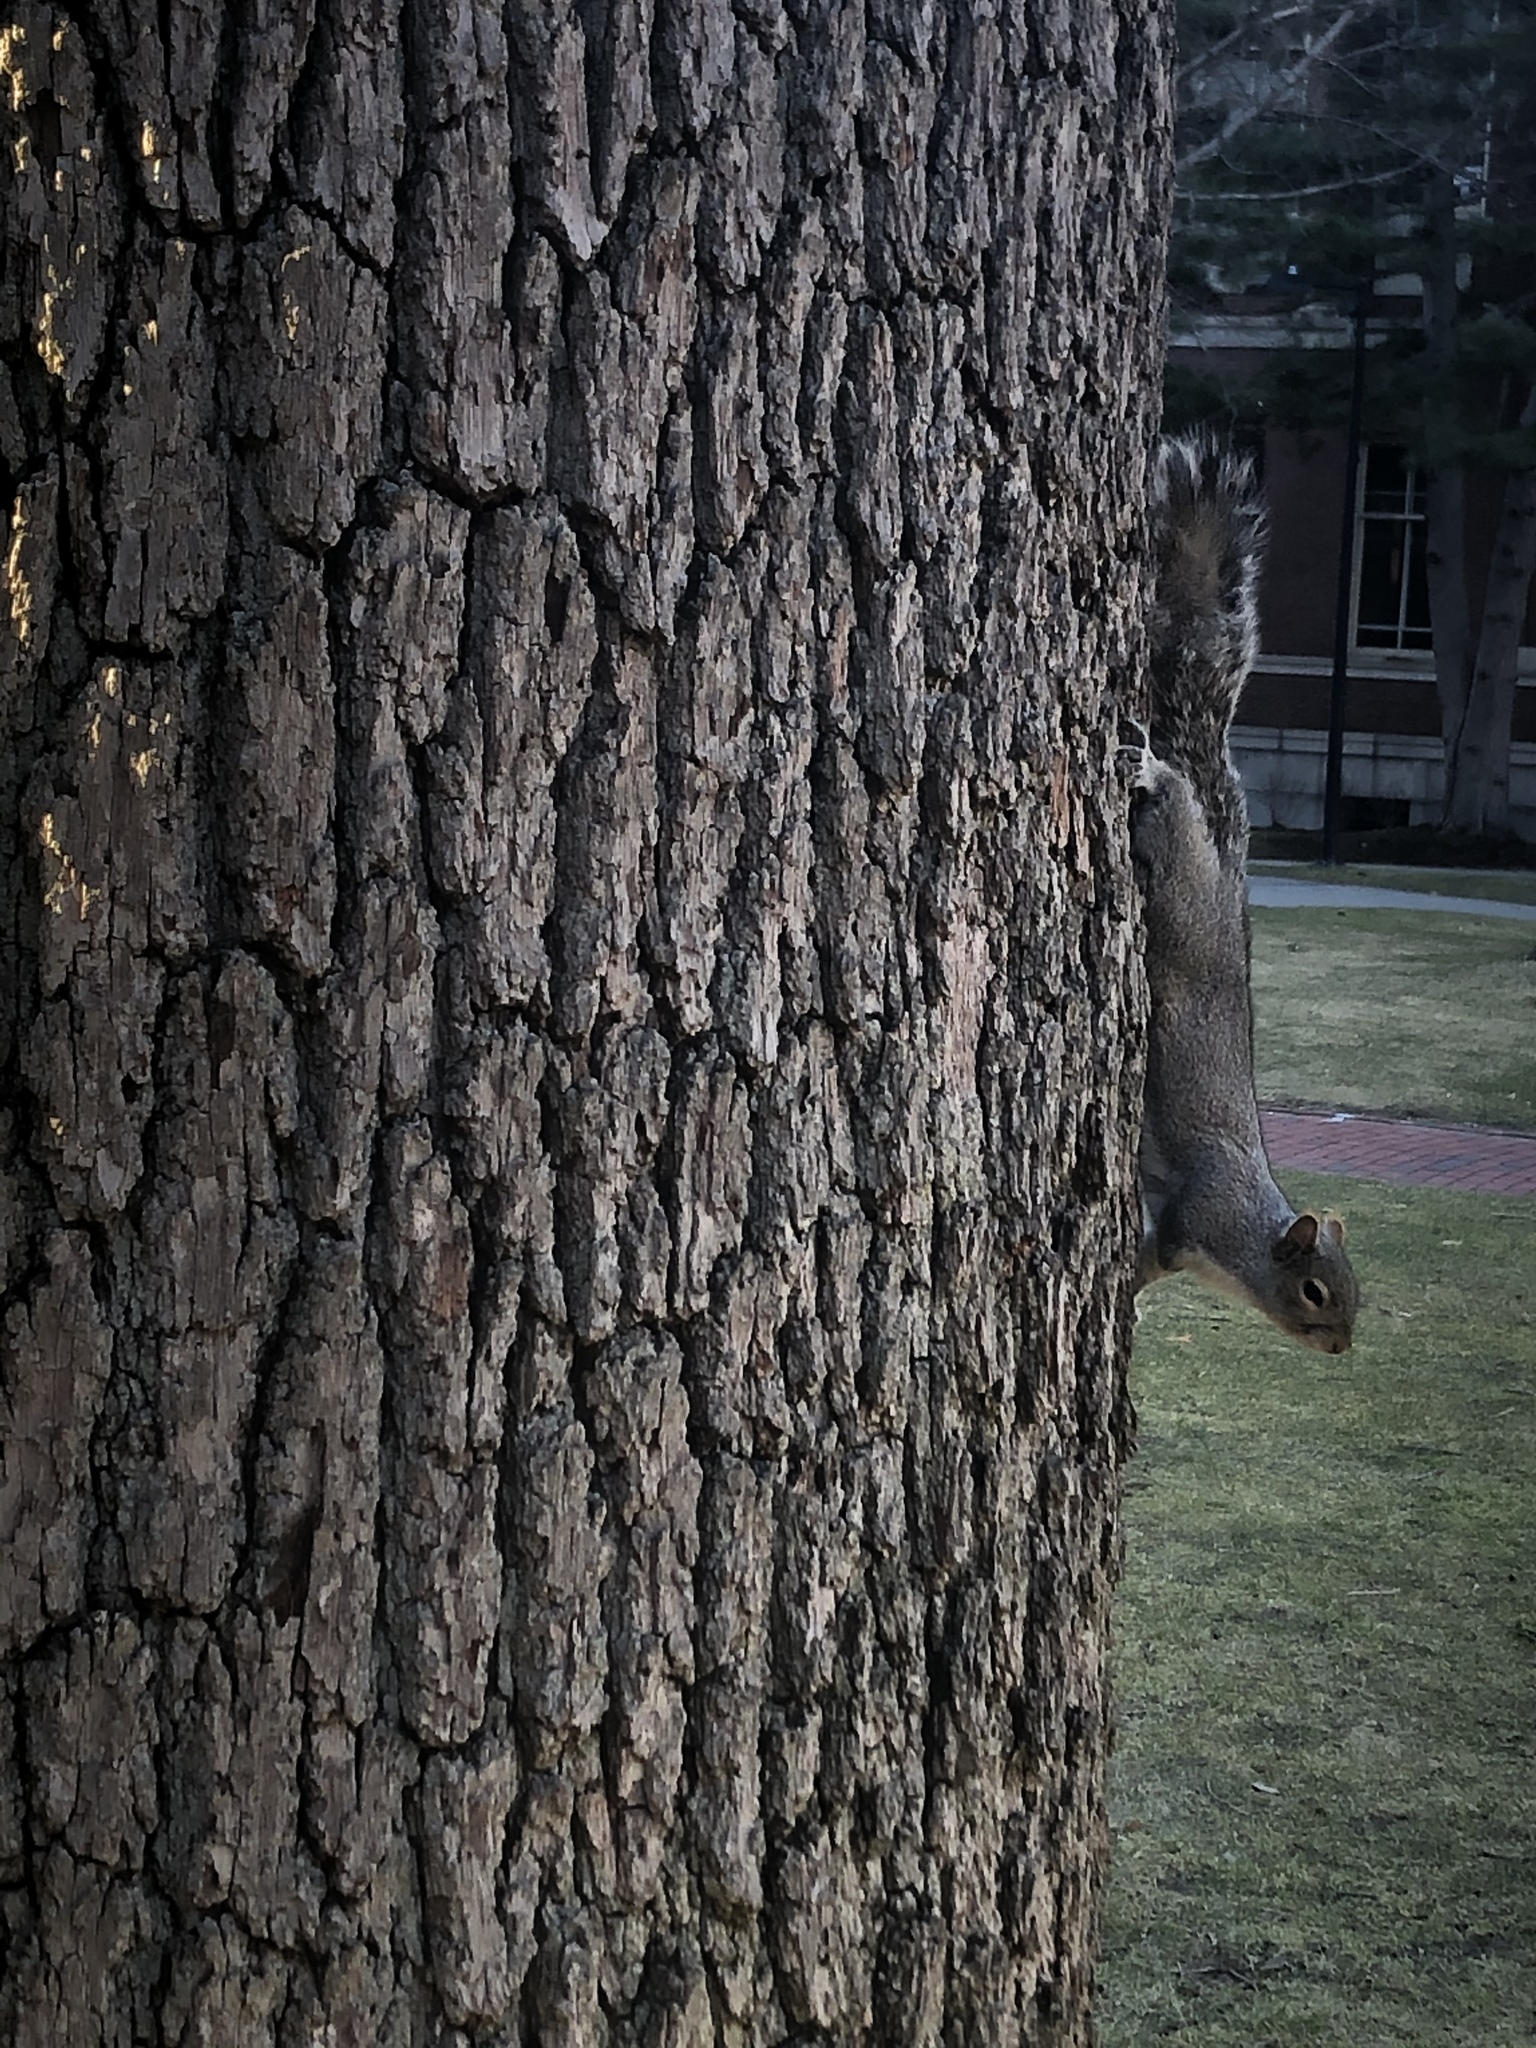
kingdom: Animalia
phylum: Chordata
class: Mammalia
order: Rodentia
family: Sciuridae
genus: Sciurus
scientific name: Sciurus carolinensis
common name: Eastern gray squirrel
